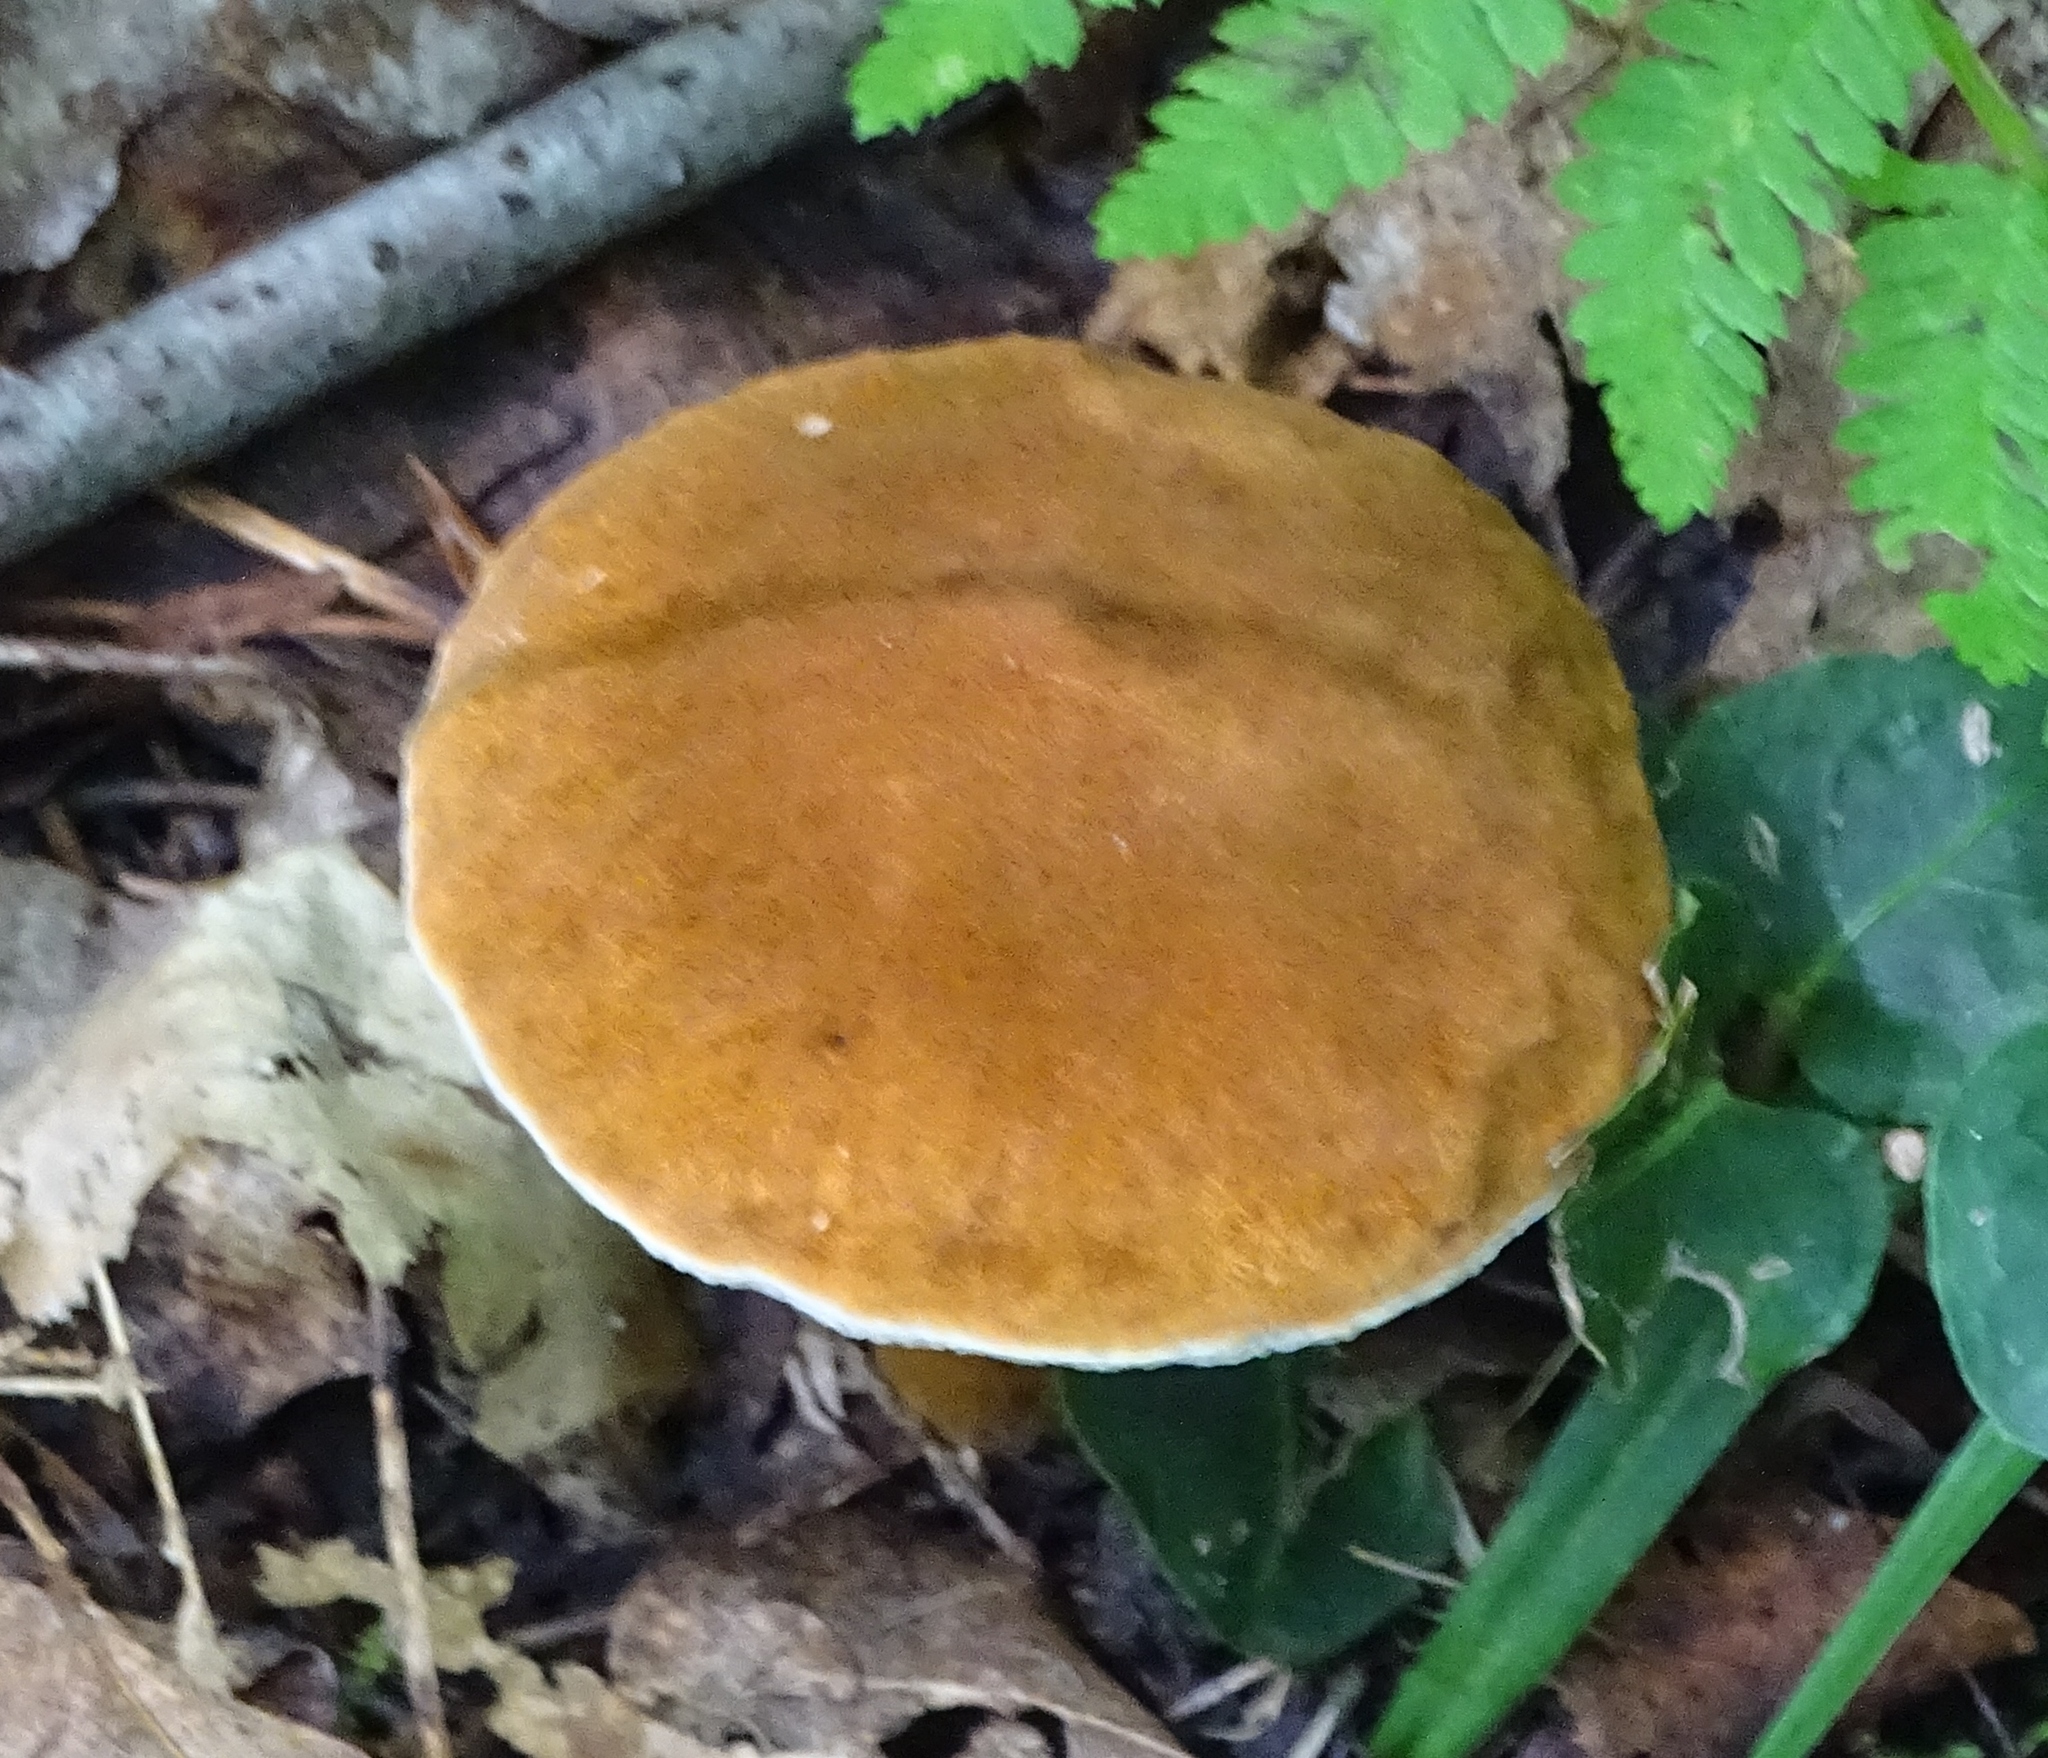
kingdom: Fungi
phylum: Basidiomycota
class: Agaricomycetes
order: Boletales
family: Gyroporaceae
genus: Gyroporus
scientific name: Gyroporus castaneus
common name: Chestnut bolete
